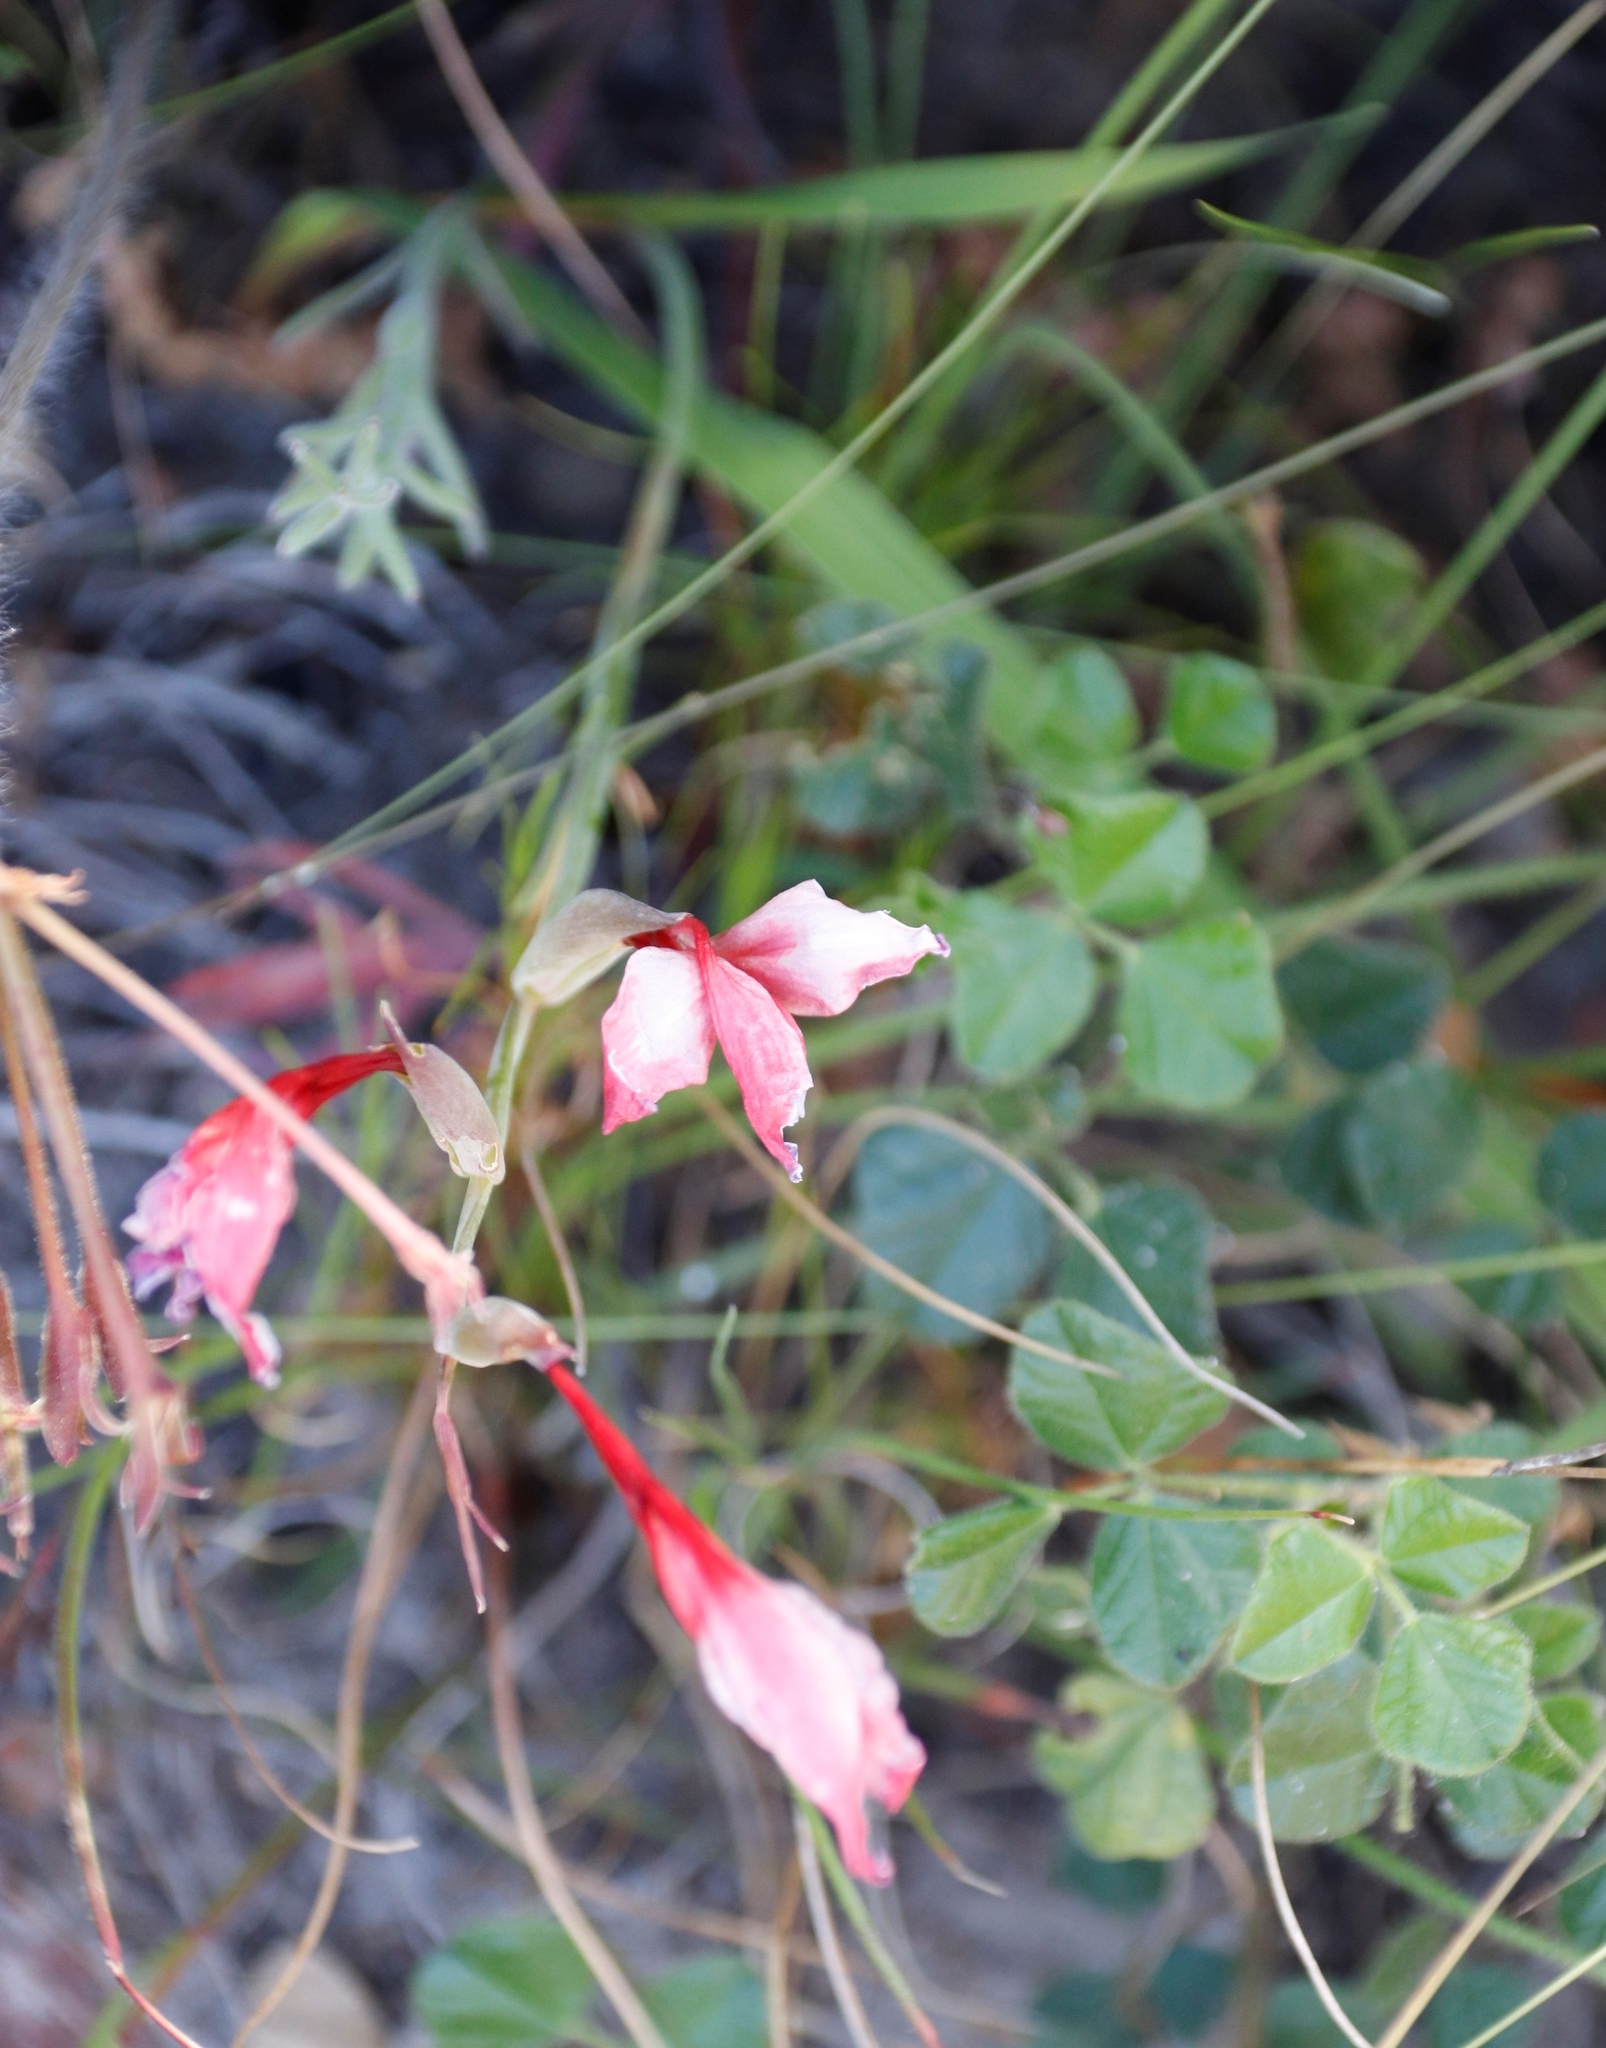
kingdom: Plantae
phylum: Tracheophyta
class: Liliopsida
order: Asparagales
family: Iridaceae
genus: Gladiolus
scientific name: Gladiolus carneus
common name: Painted-lady
